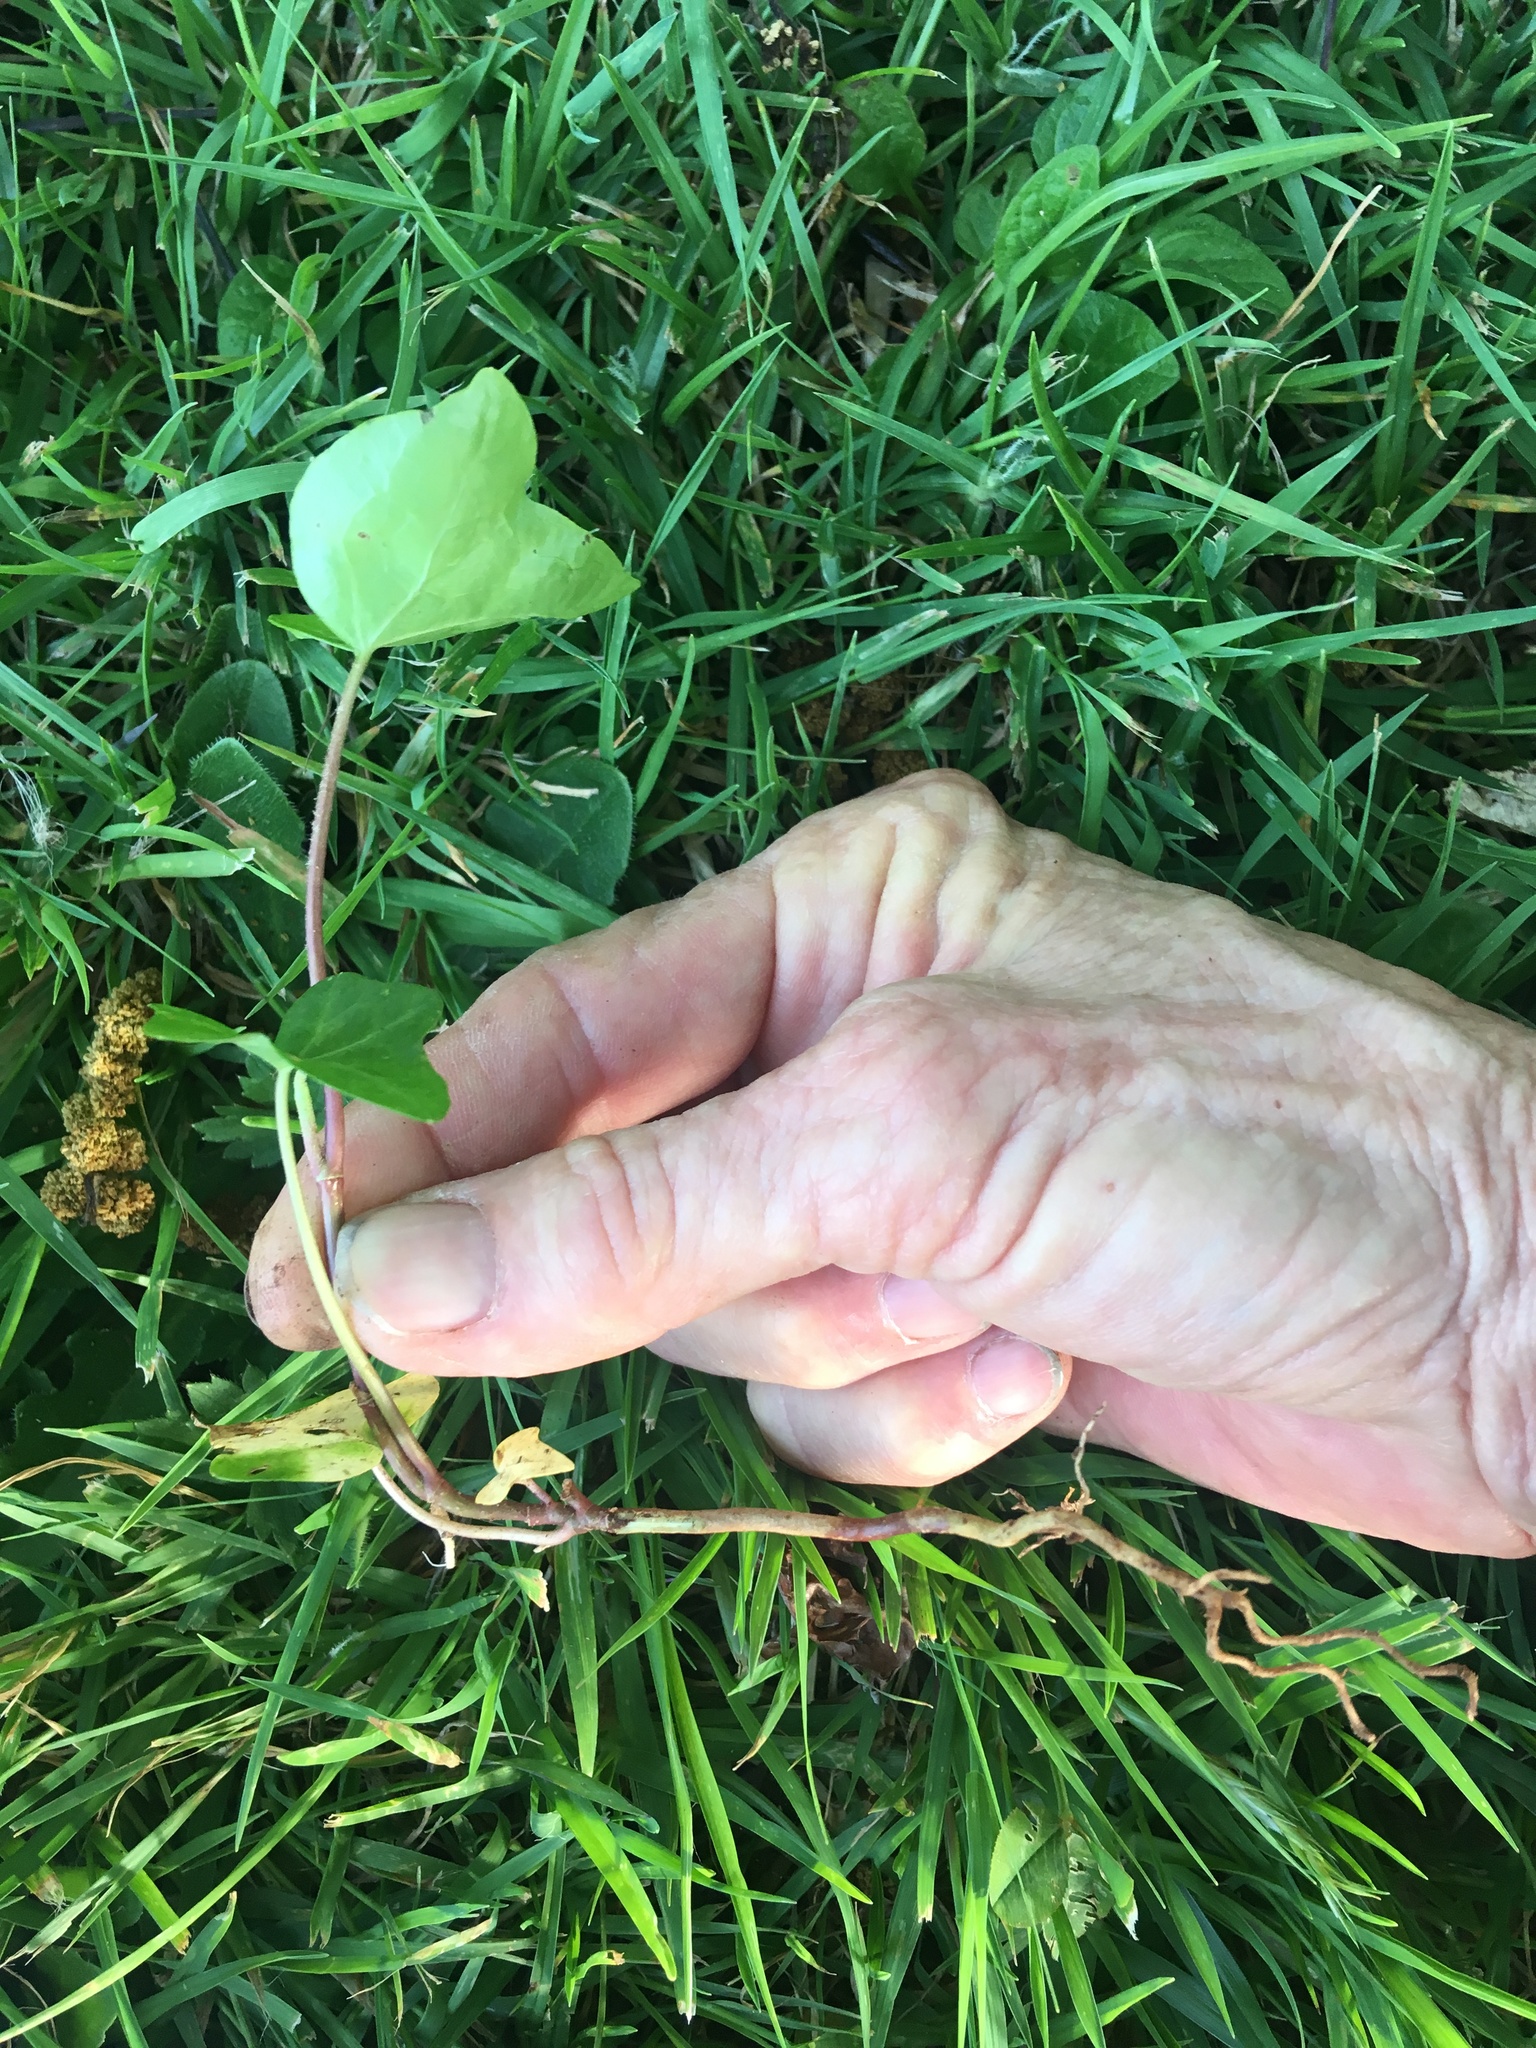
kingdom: Plantae
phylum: Tracheophyta
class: Magnoliopsida
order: Apiales
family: Araliaceae
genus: Hedera
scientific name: Hedera helix
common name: Ivy
